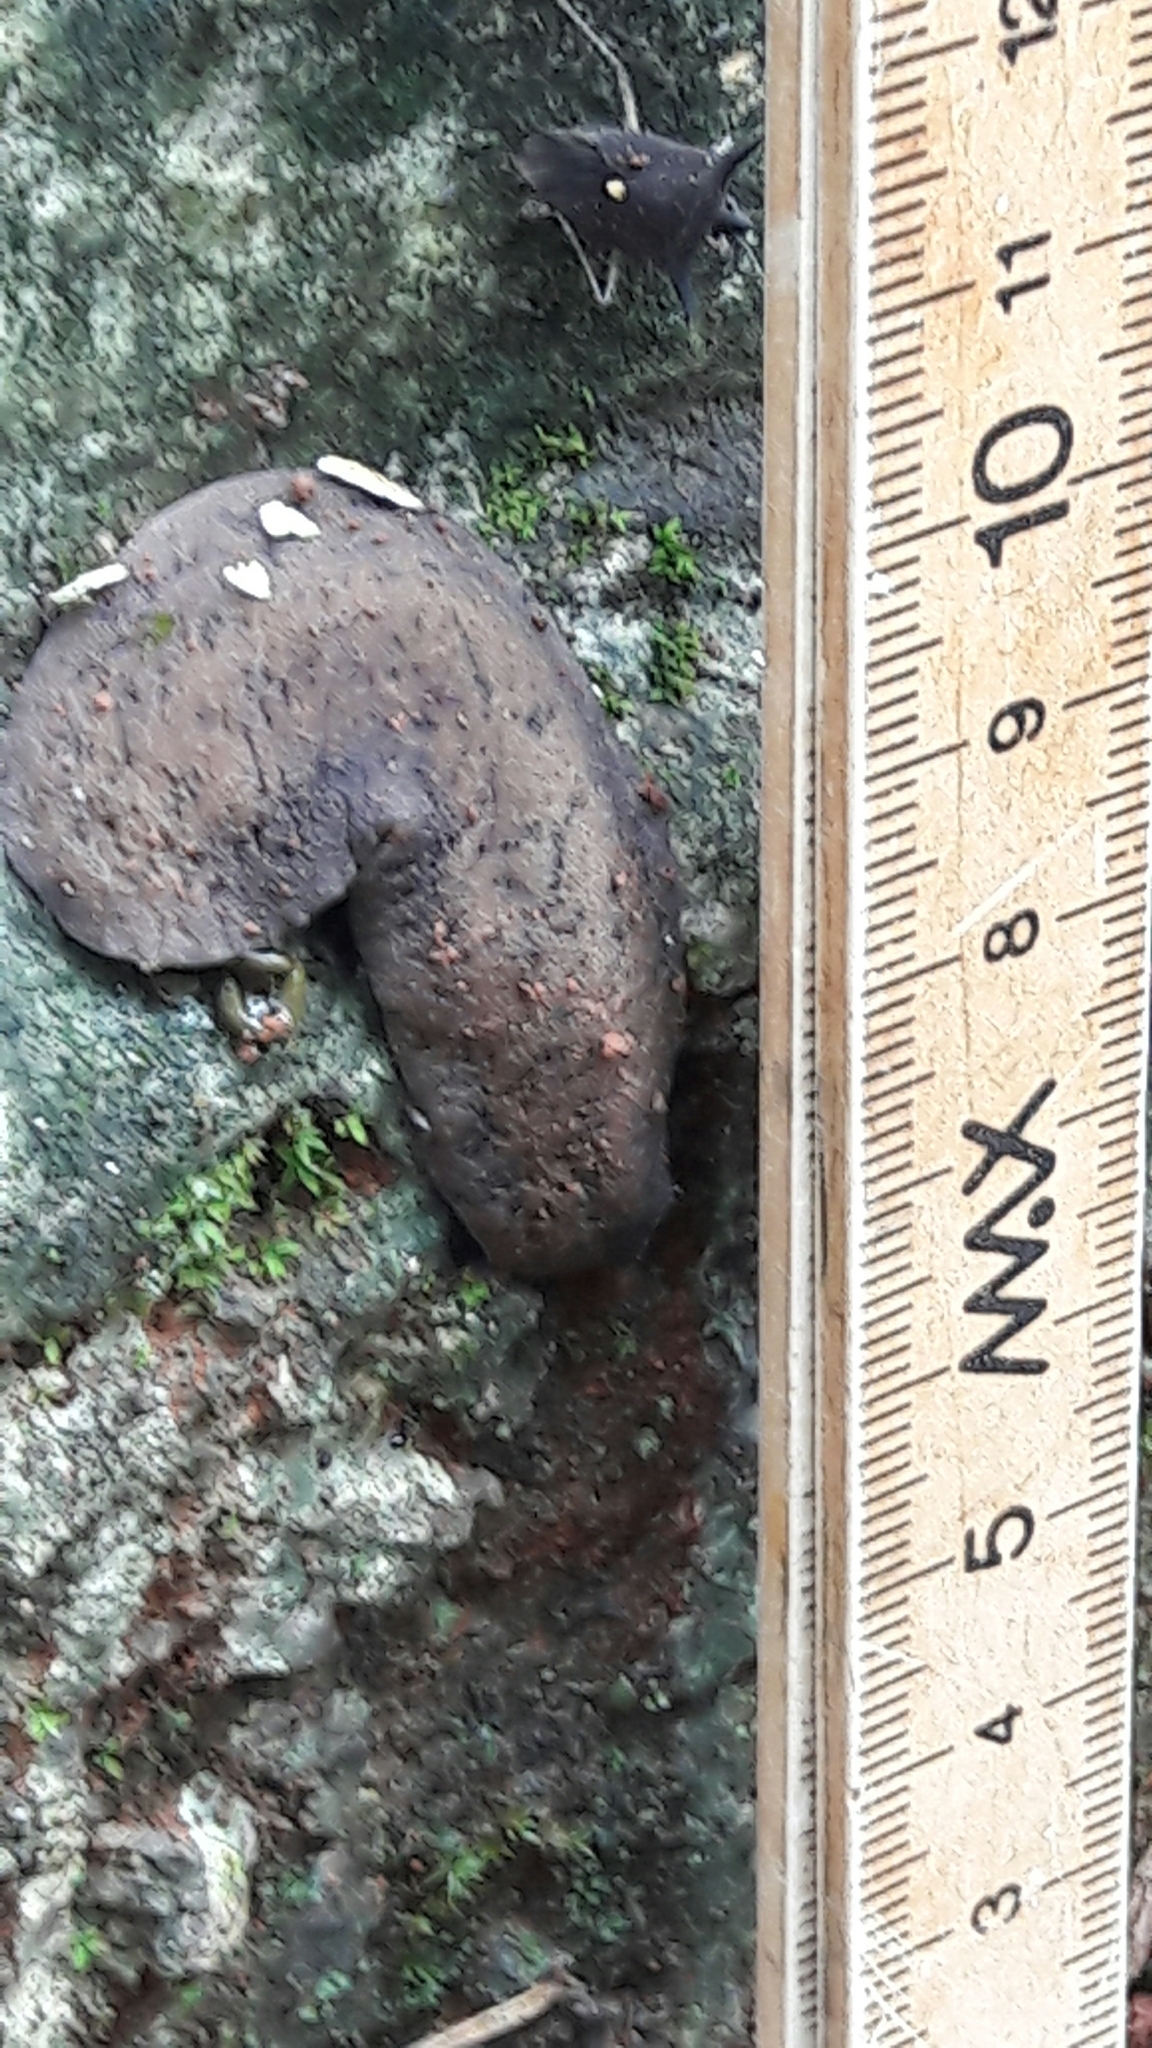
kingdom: Animalia
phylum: Mollusca
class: Gastropoda
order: Systellommatophora
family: Veronicellidae
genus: Sarasinula
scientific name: Sarasinula
